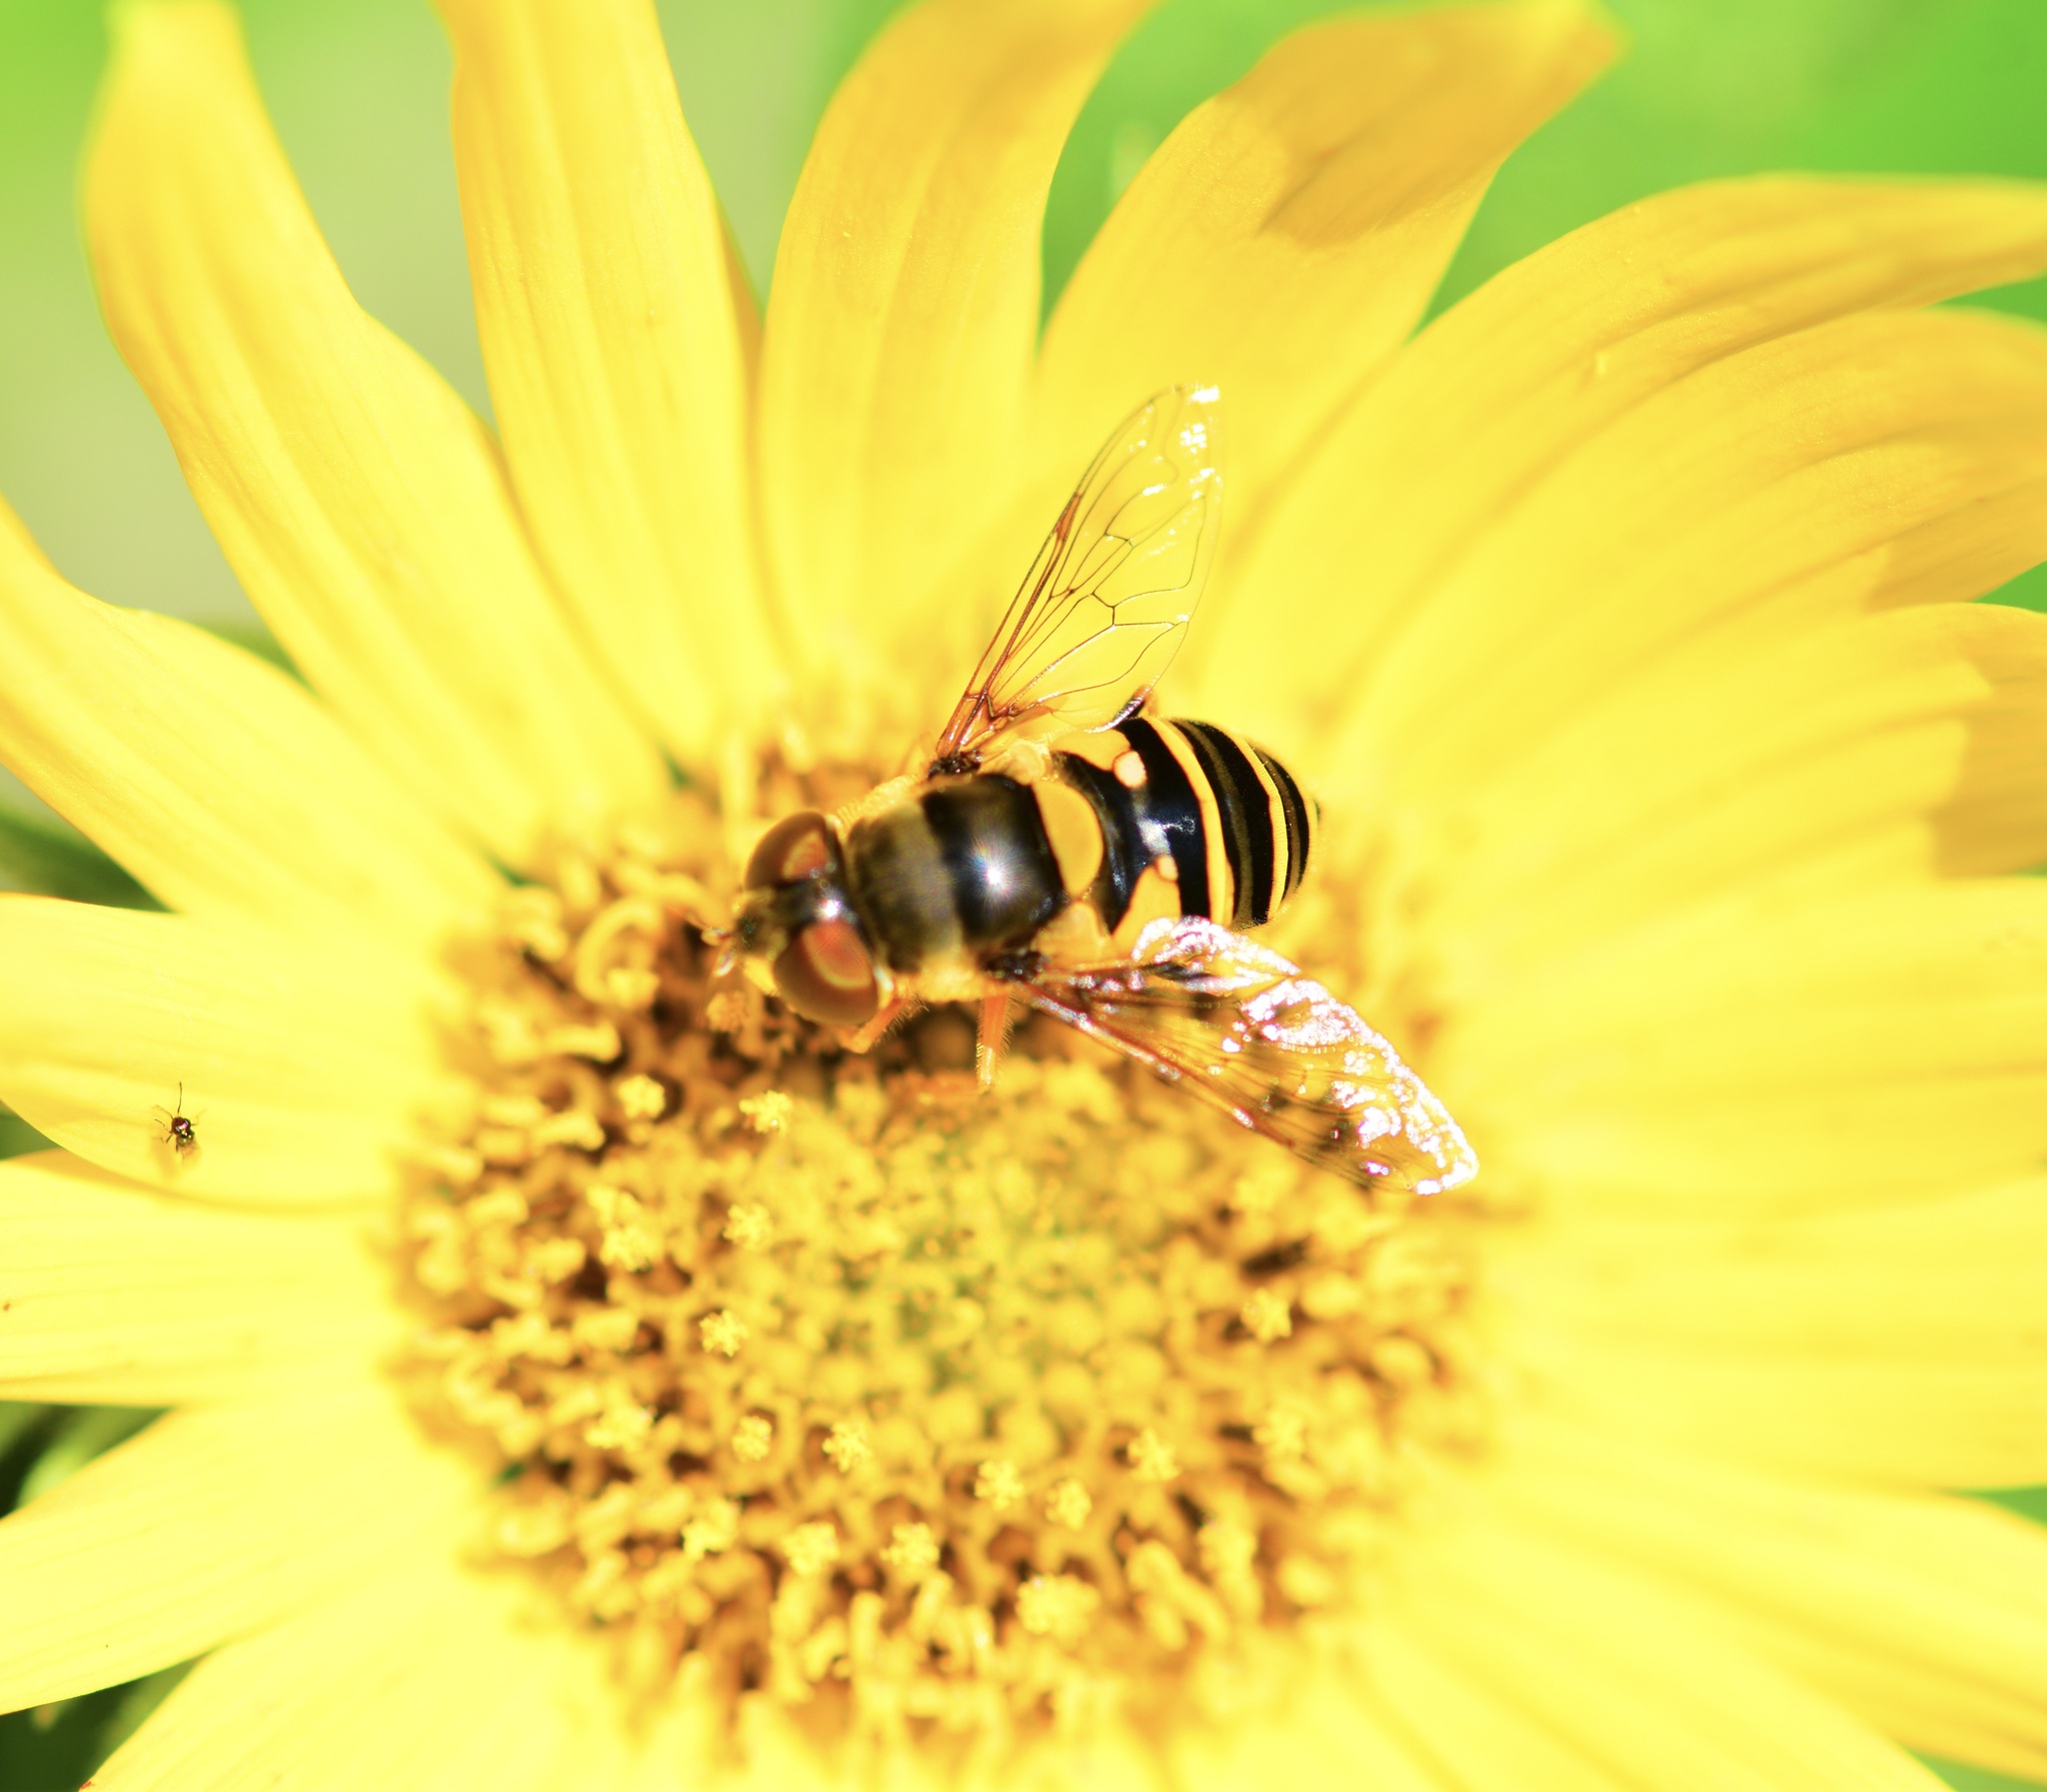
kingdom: Animalia
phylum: Arthropoda
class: Insecta
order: Diptera
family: Syrphidae
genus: Eristalis
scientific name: Eristalis transversa
